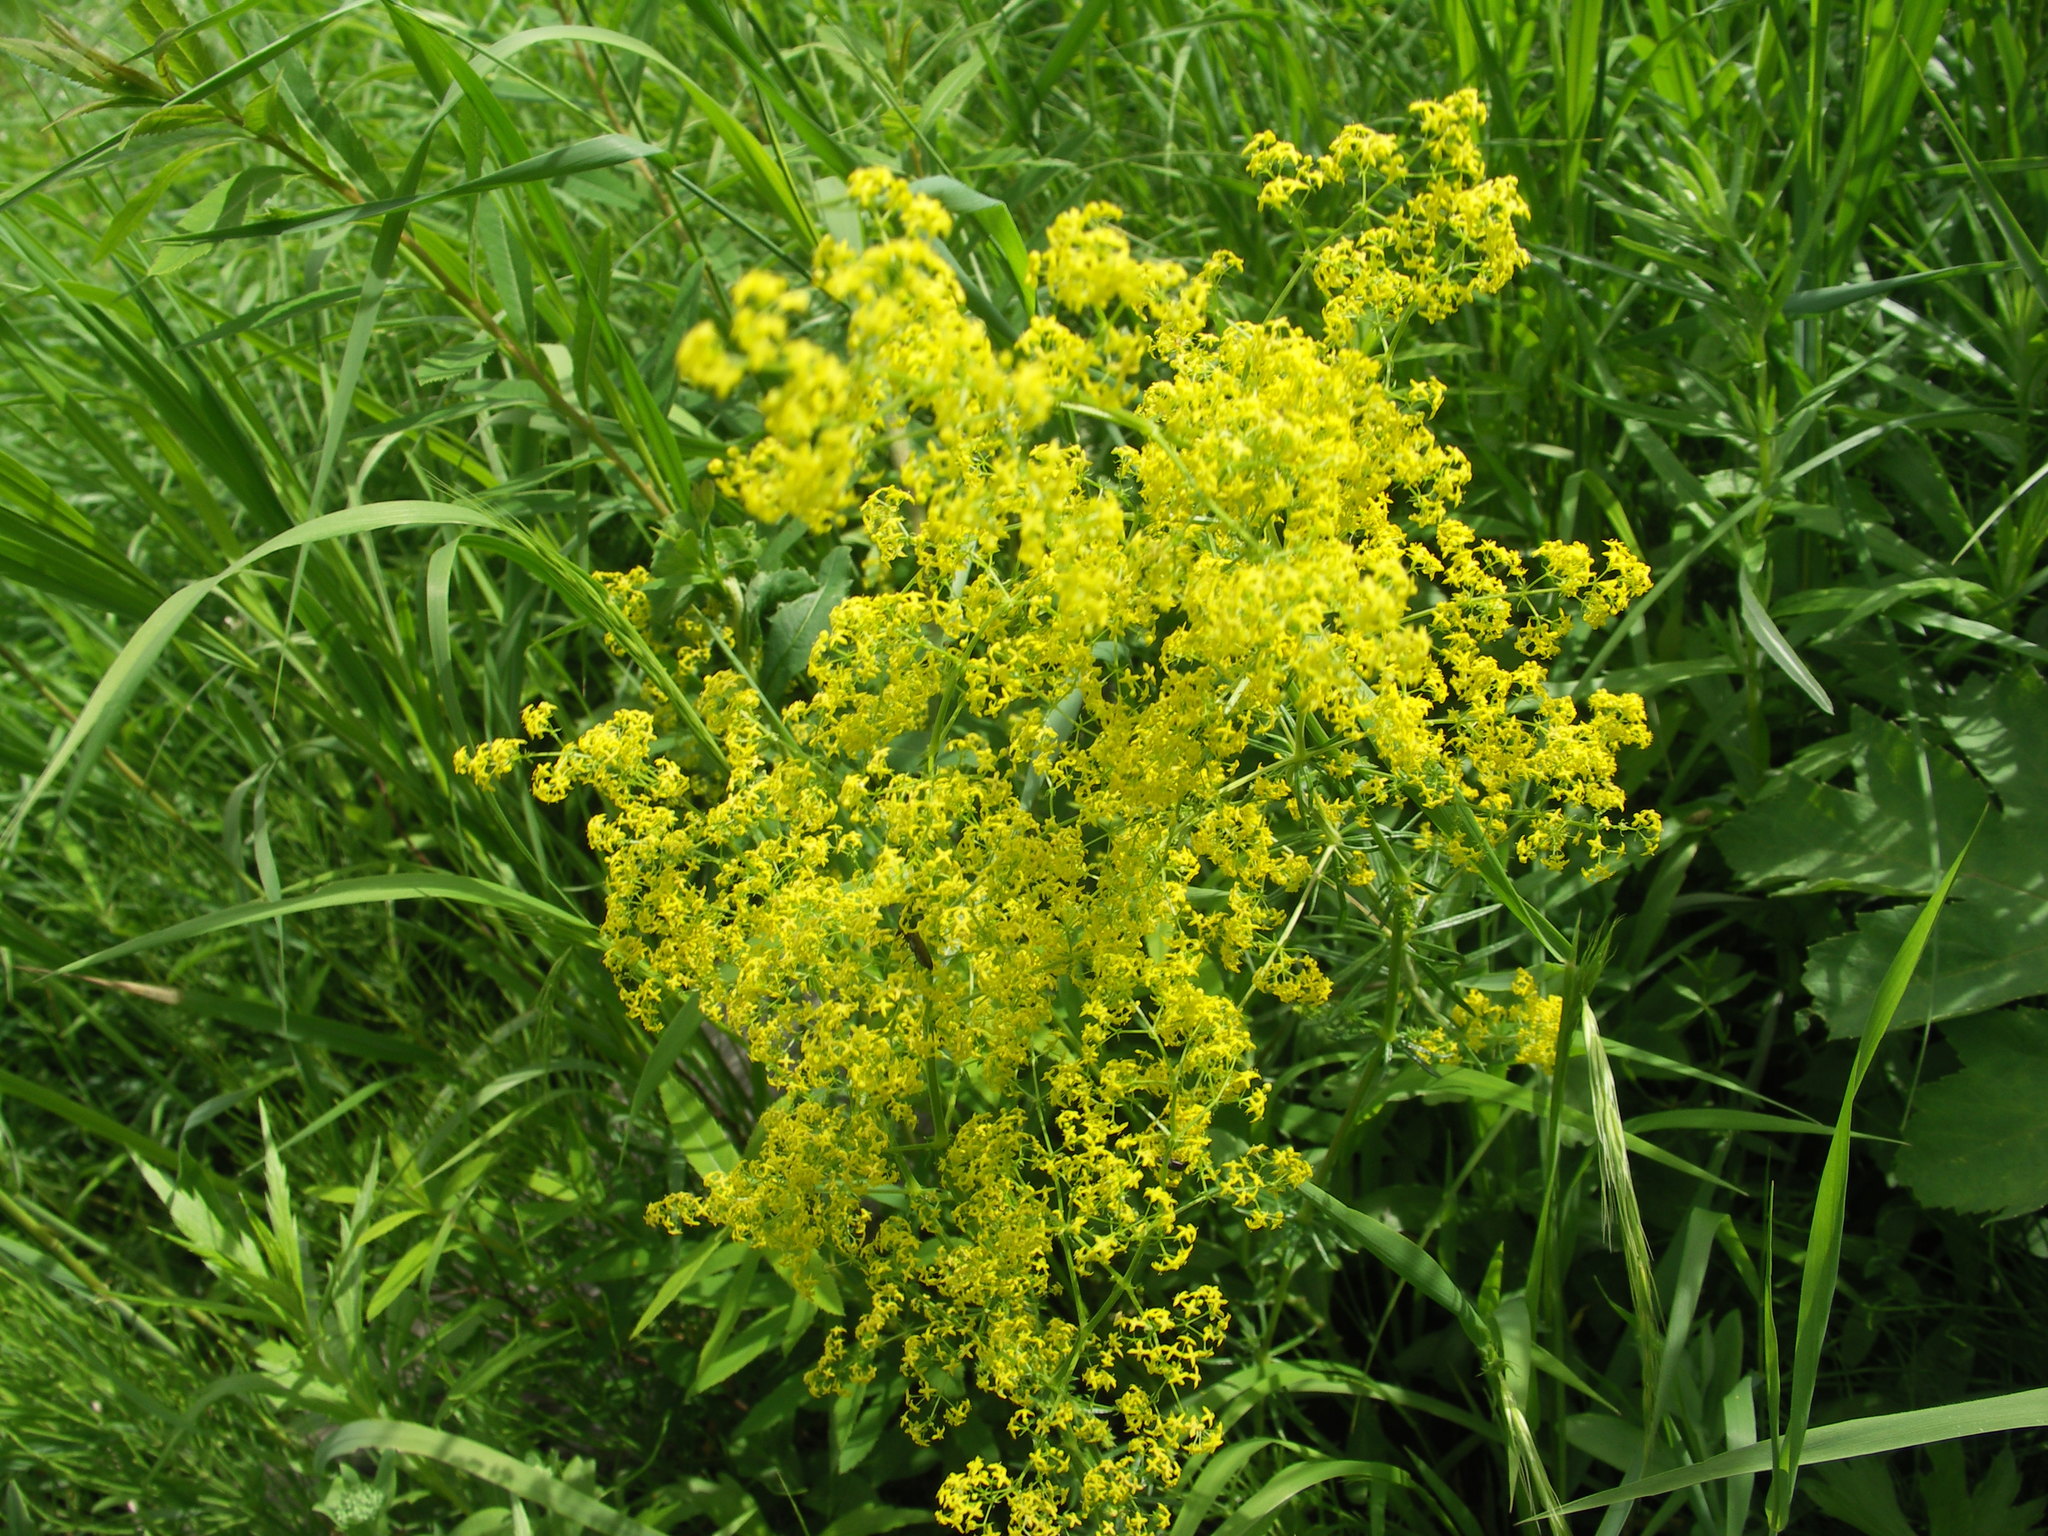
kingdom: Plantae
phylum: Tracheophyta
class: Magnoliopsida
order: Gentianales
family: Rubiaceae
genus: Galium
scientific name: Galium verum
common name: Lady's bedstraw
